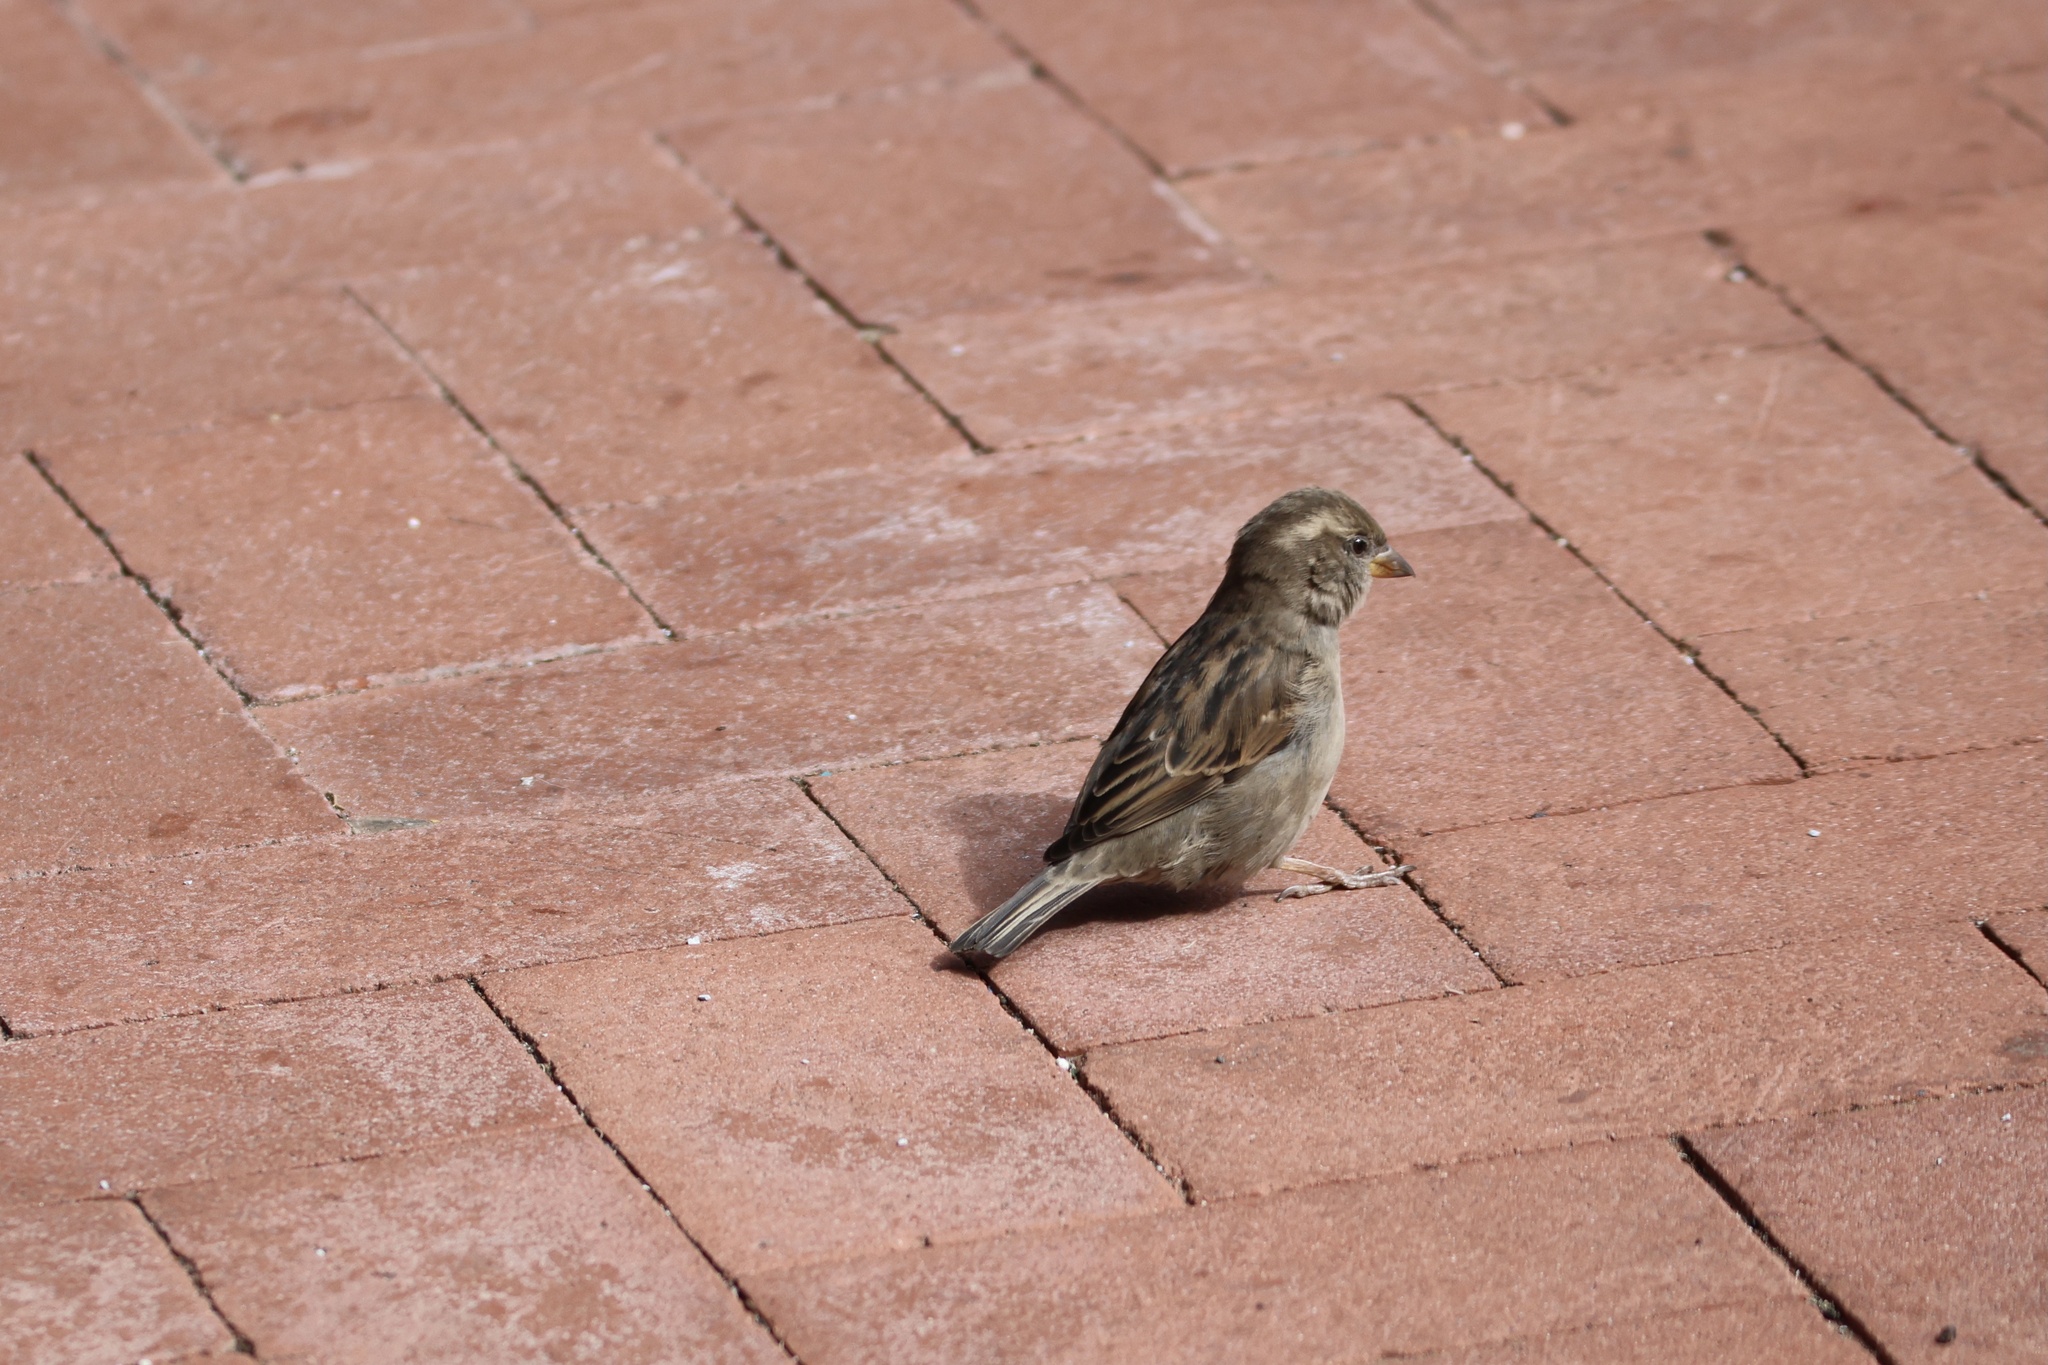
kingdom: Animalia
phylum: Chordata
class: Aves
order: Passeriformes
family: Passeridae
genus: Passer
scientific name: Passer domesticus
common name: House sparrow
